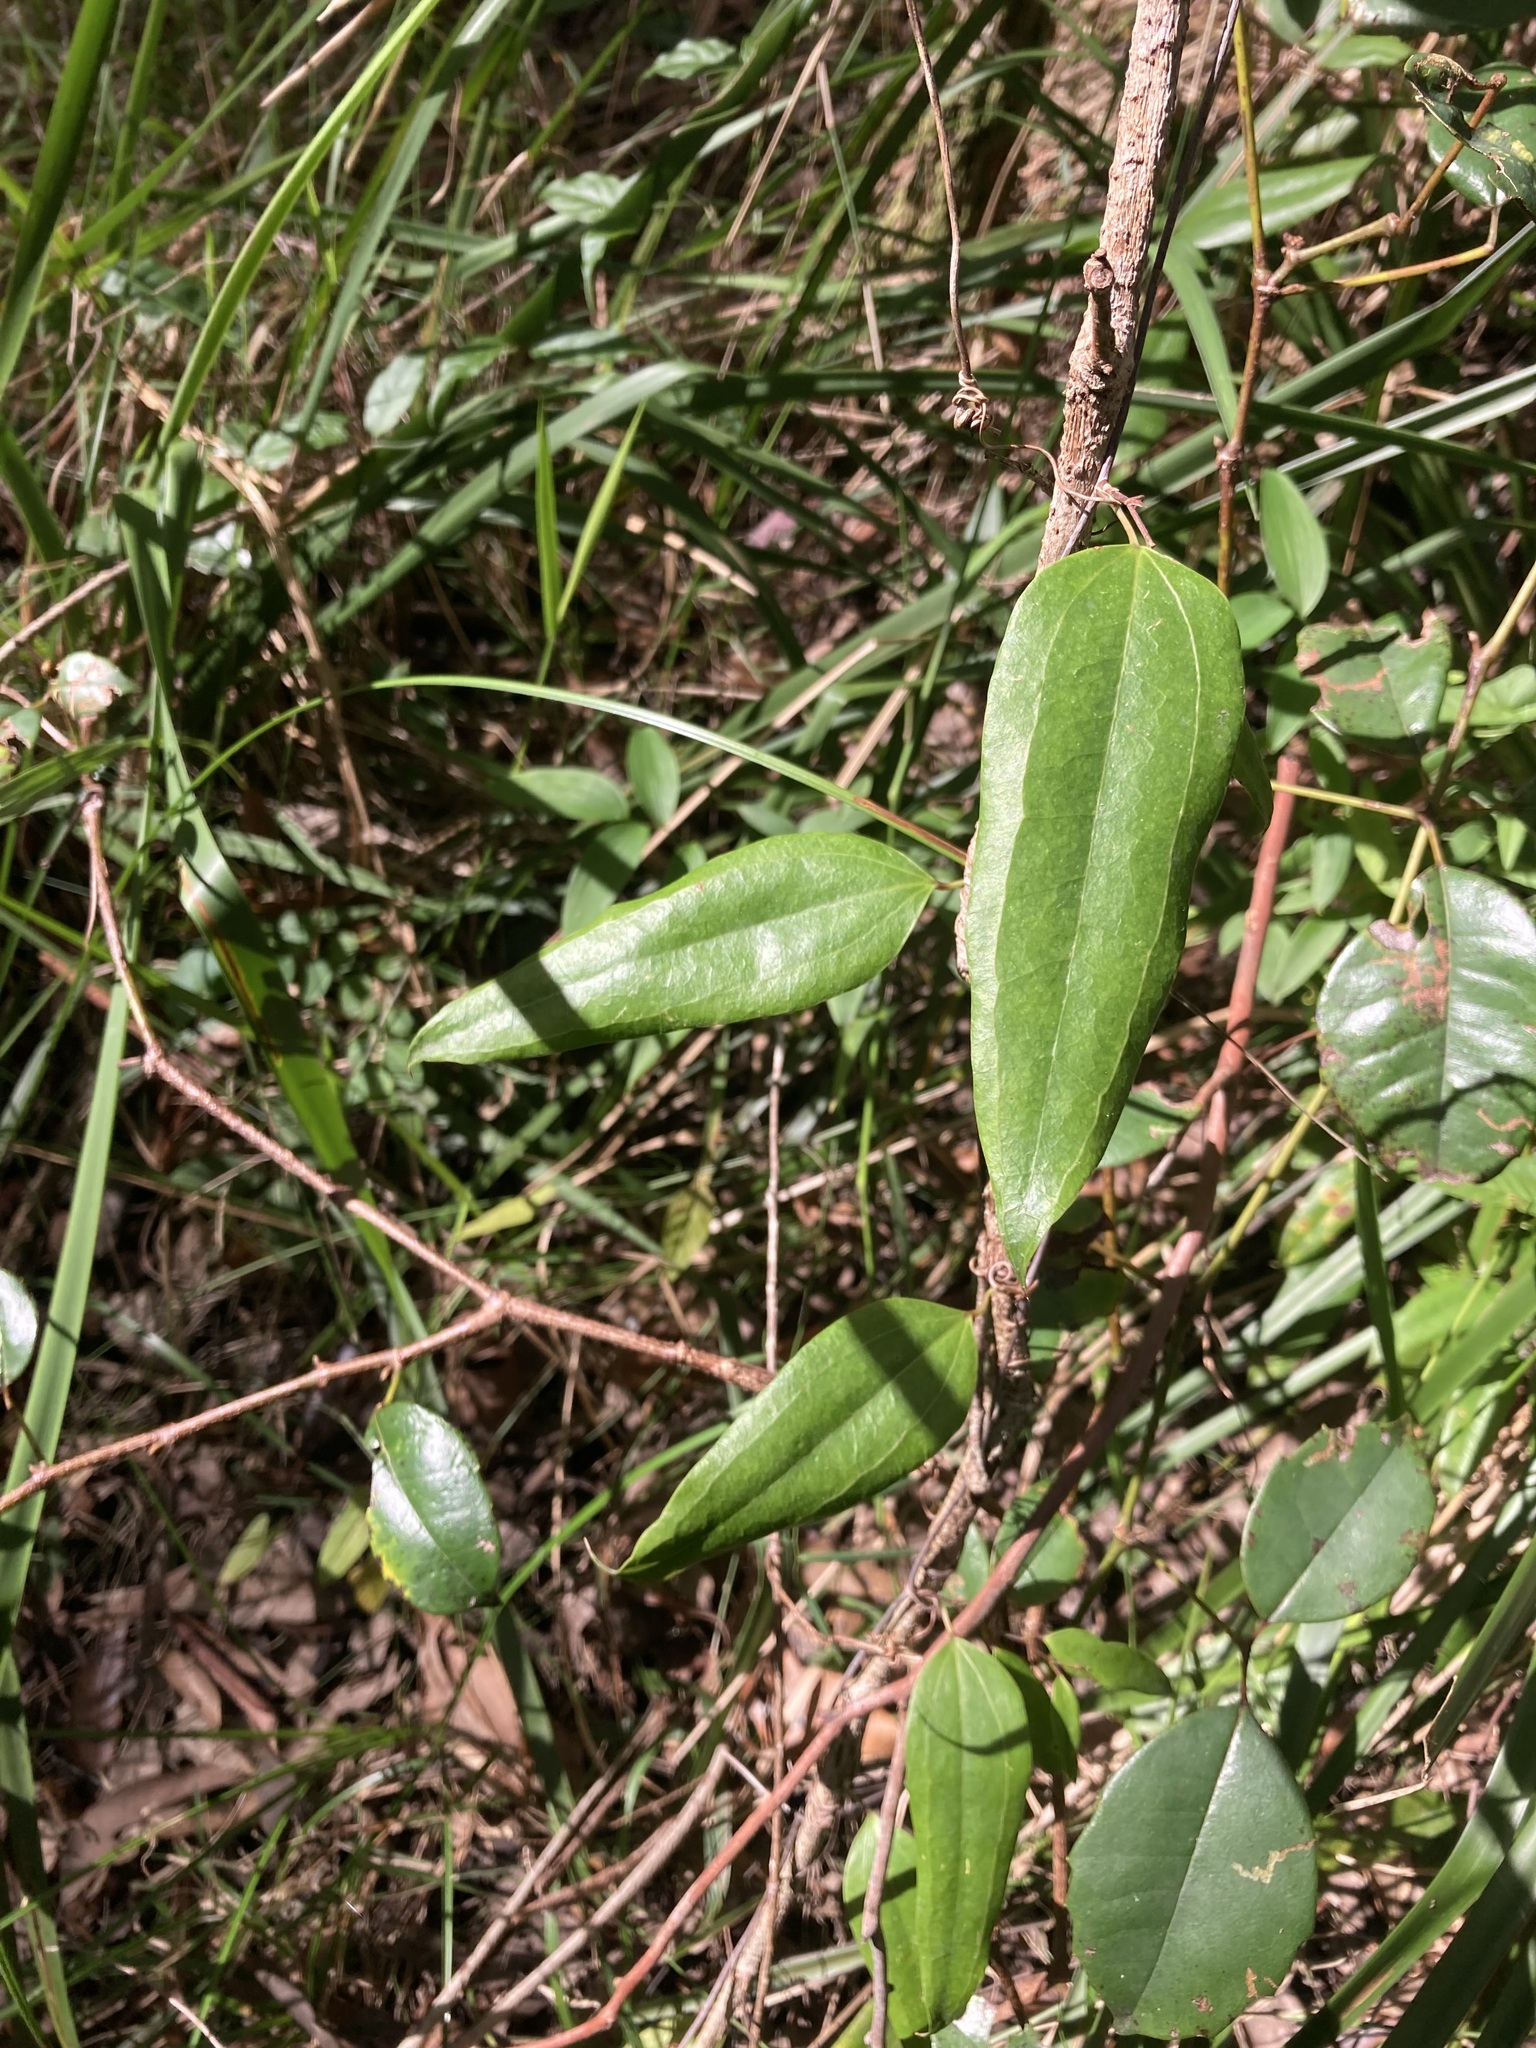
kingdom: Plantae
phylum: Tracheophyta
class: Liliopsida
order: Liliales
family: Smilacaceae
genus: Smilax
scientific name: Smilax glyciphylla
